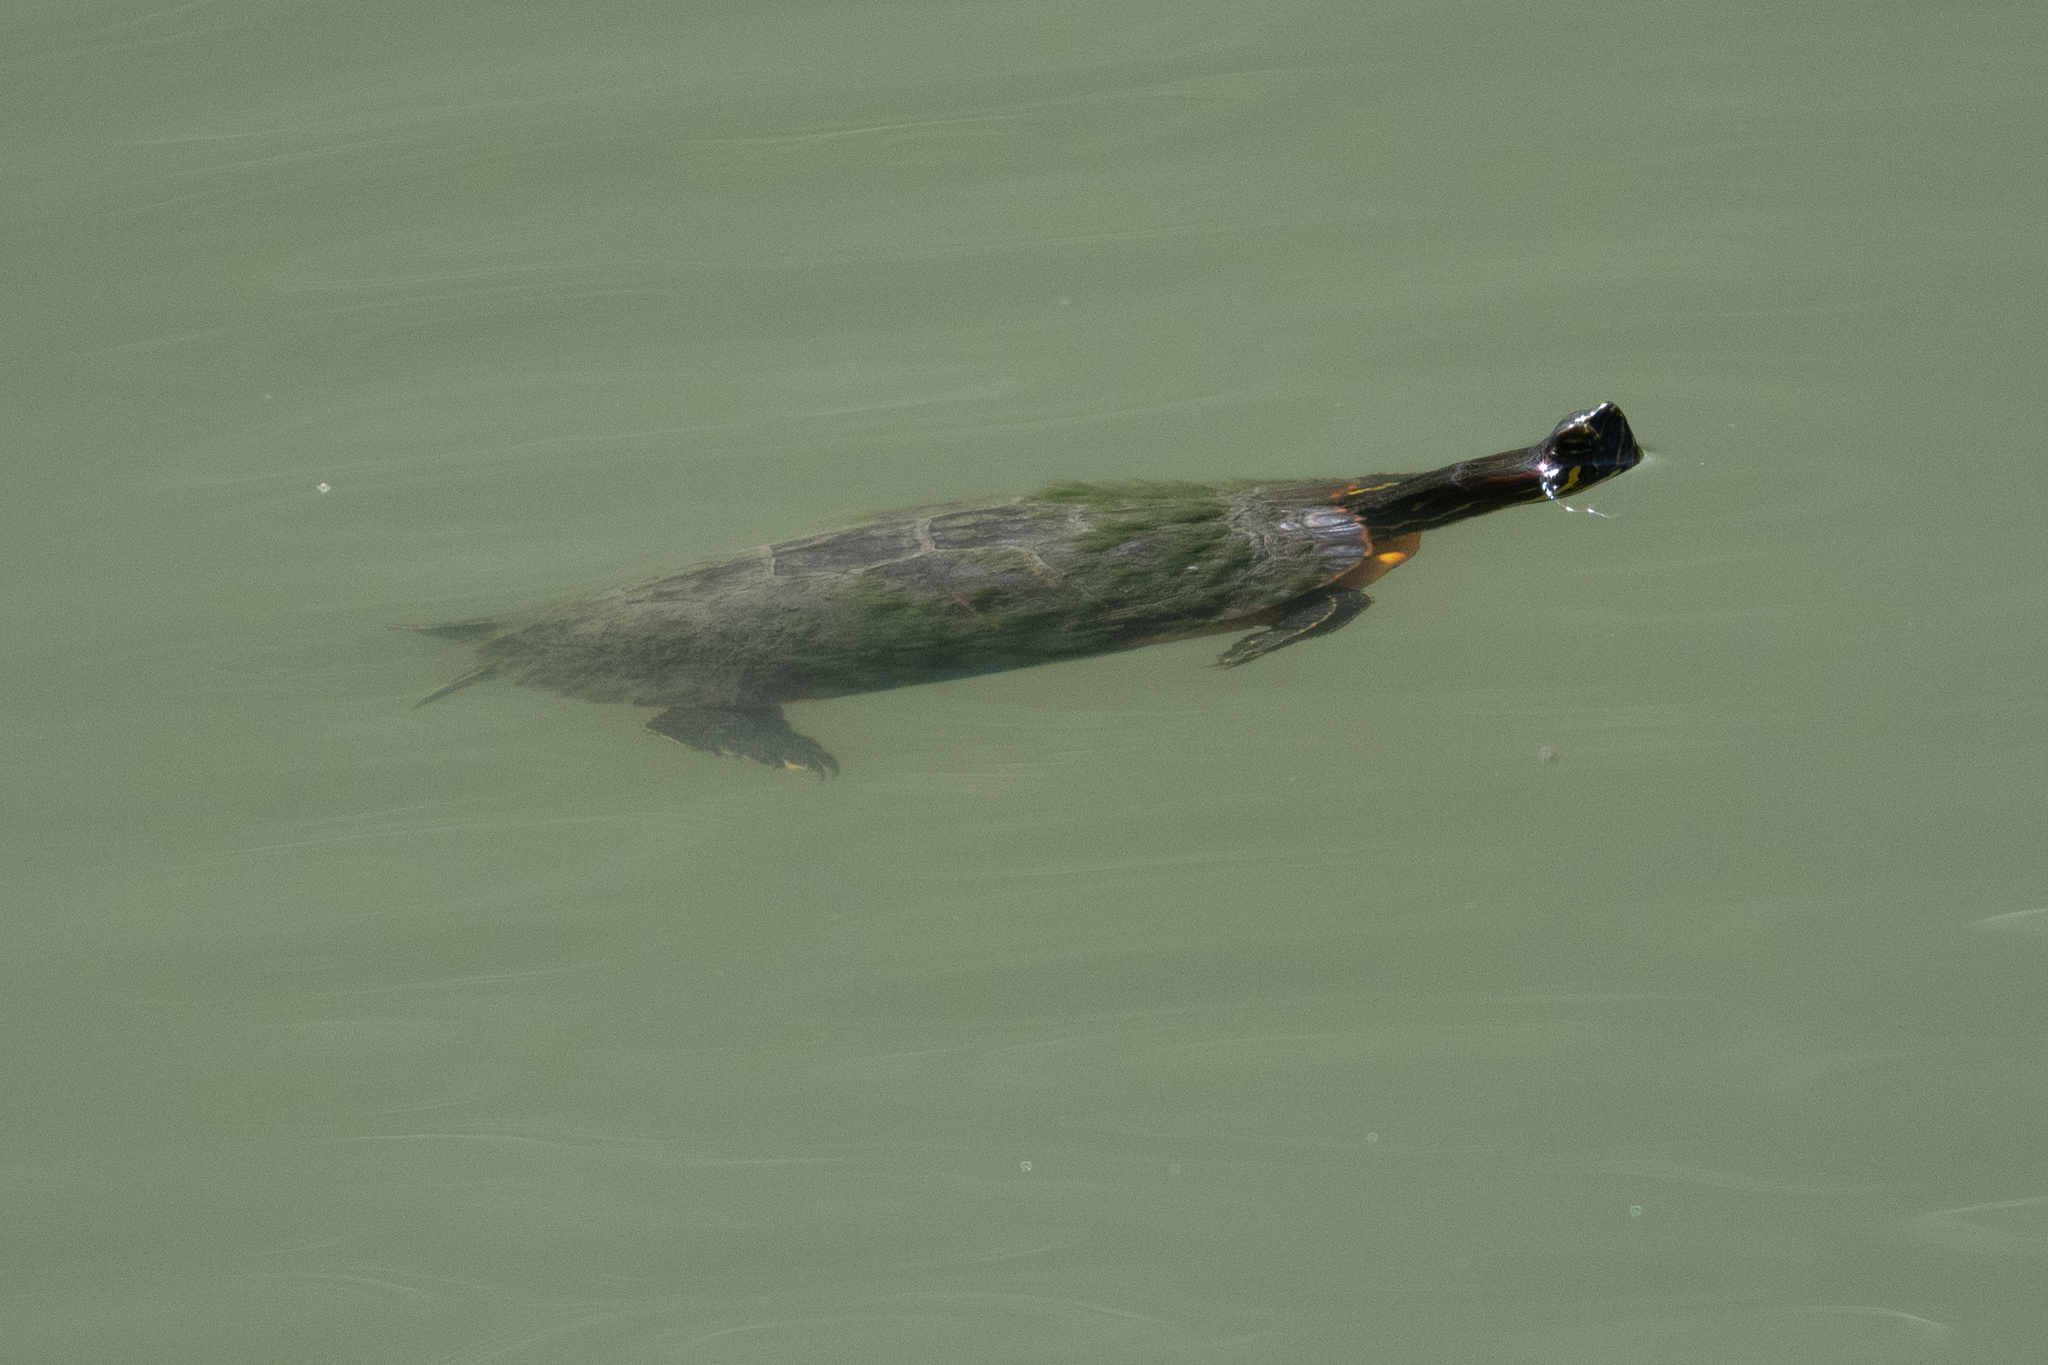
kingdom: Animalia
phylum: Chordata
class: Testudines
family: Emydidae
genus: Trachemys
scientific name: Trachemys scripta
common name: Slider
